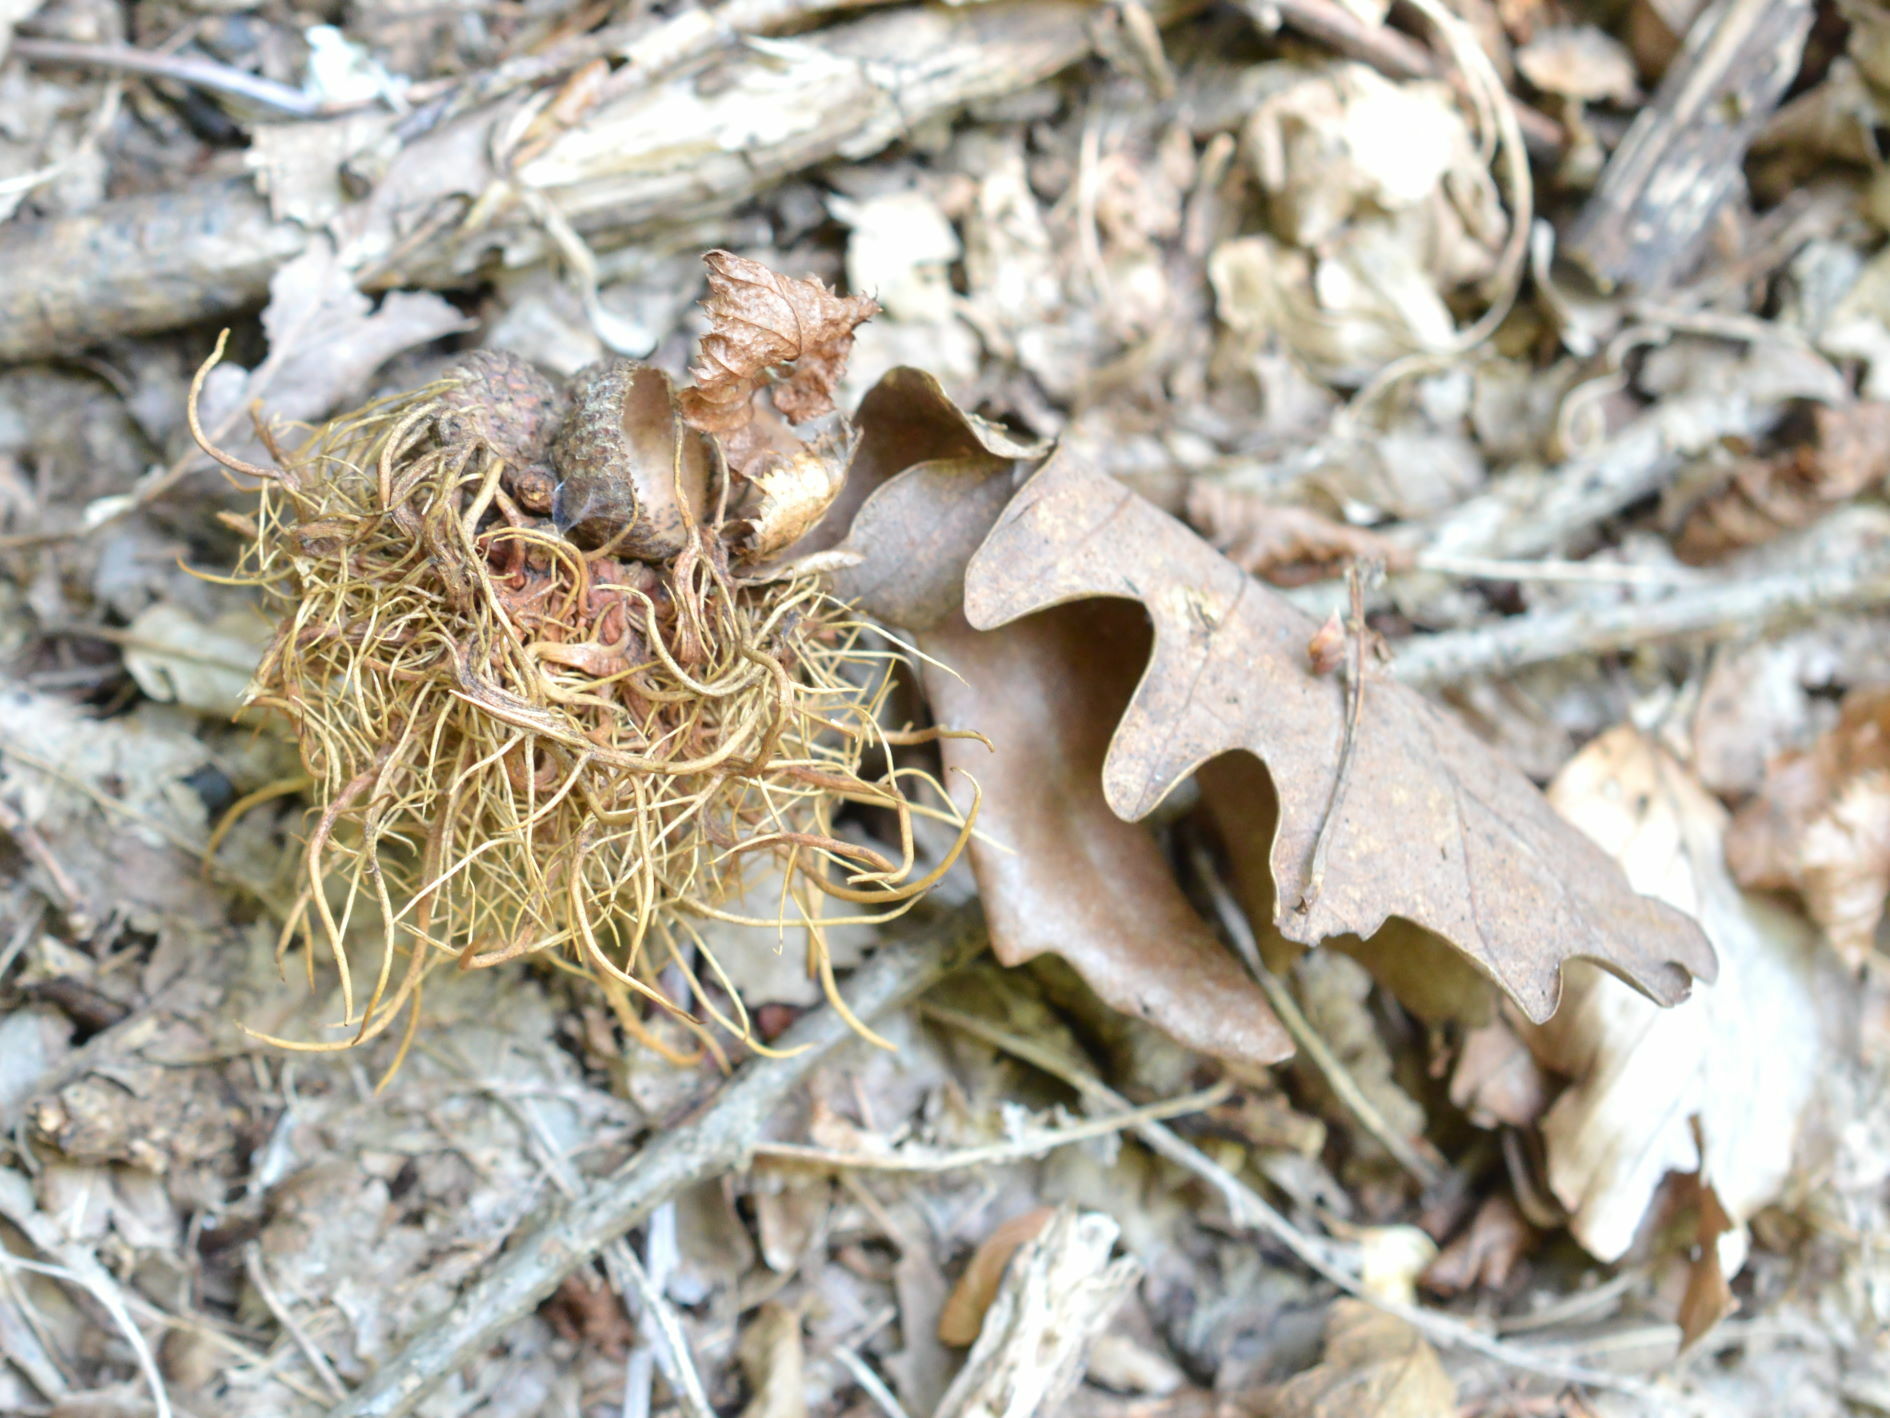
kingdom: Animalia
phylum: Arthropoda
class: Insecta
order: Hymenoptera
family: Cynipidae
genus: Andricus
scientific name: Andricus caputmedusae
